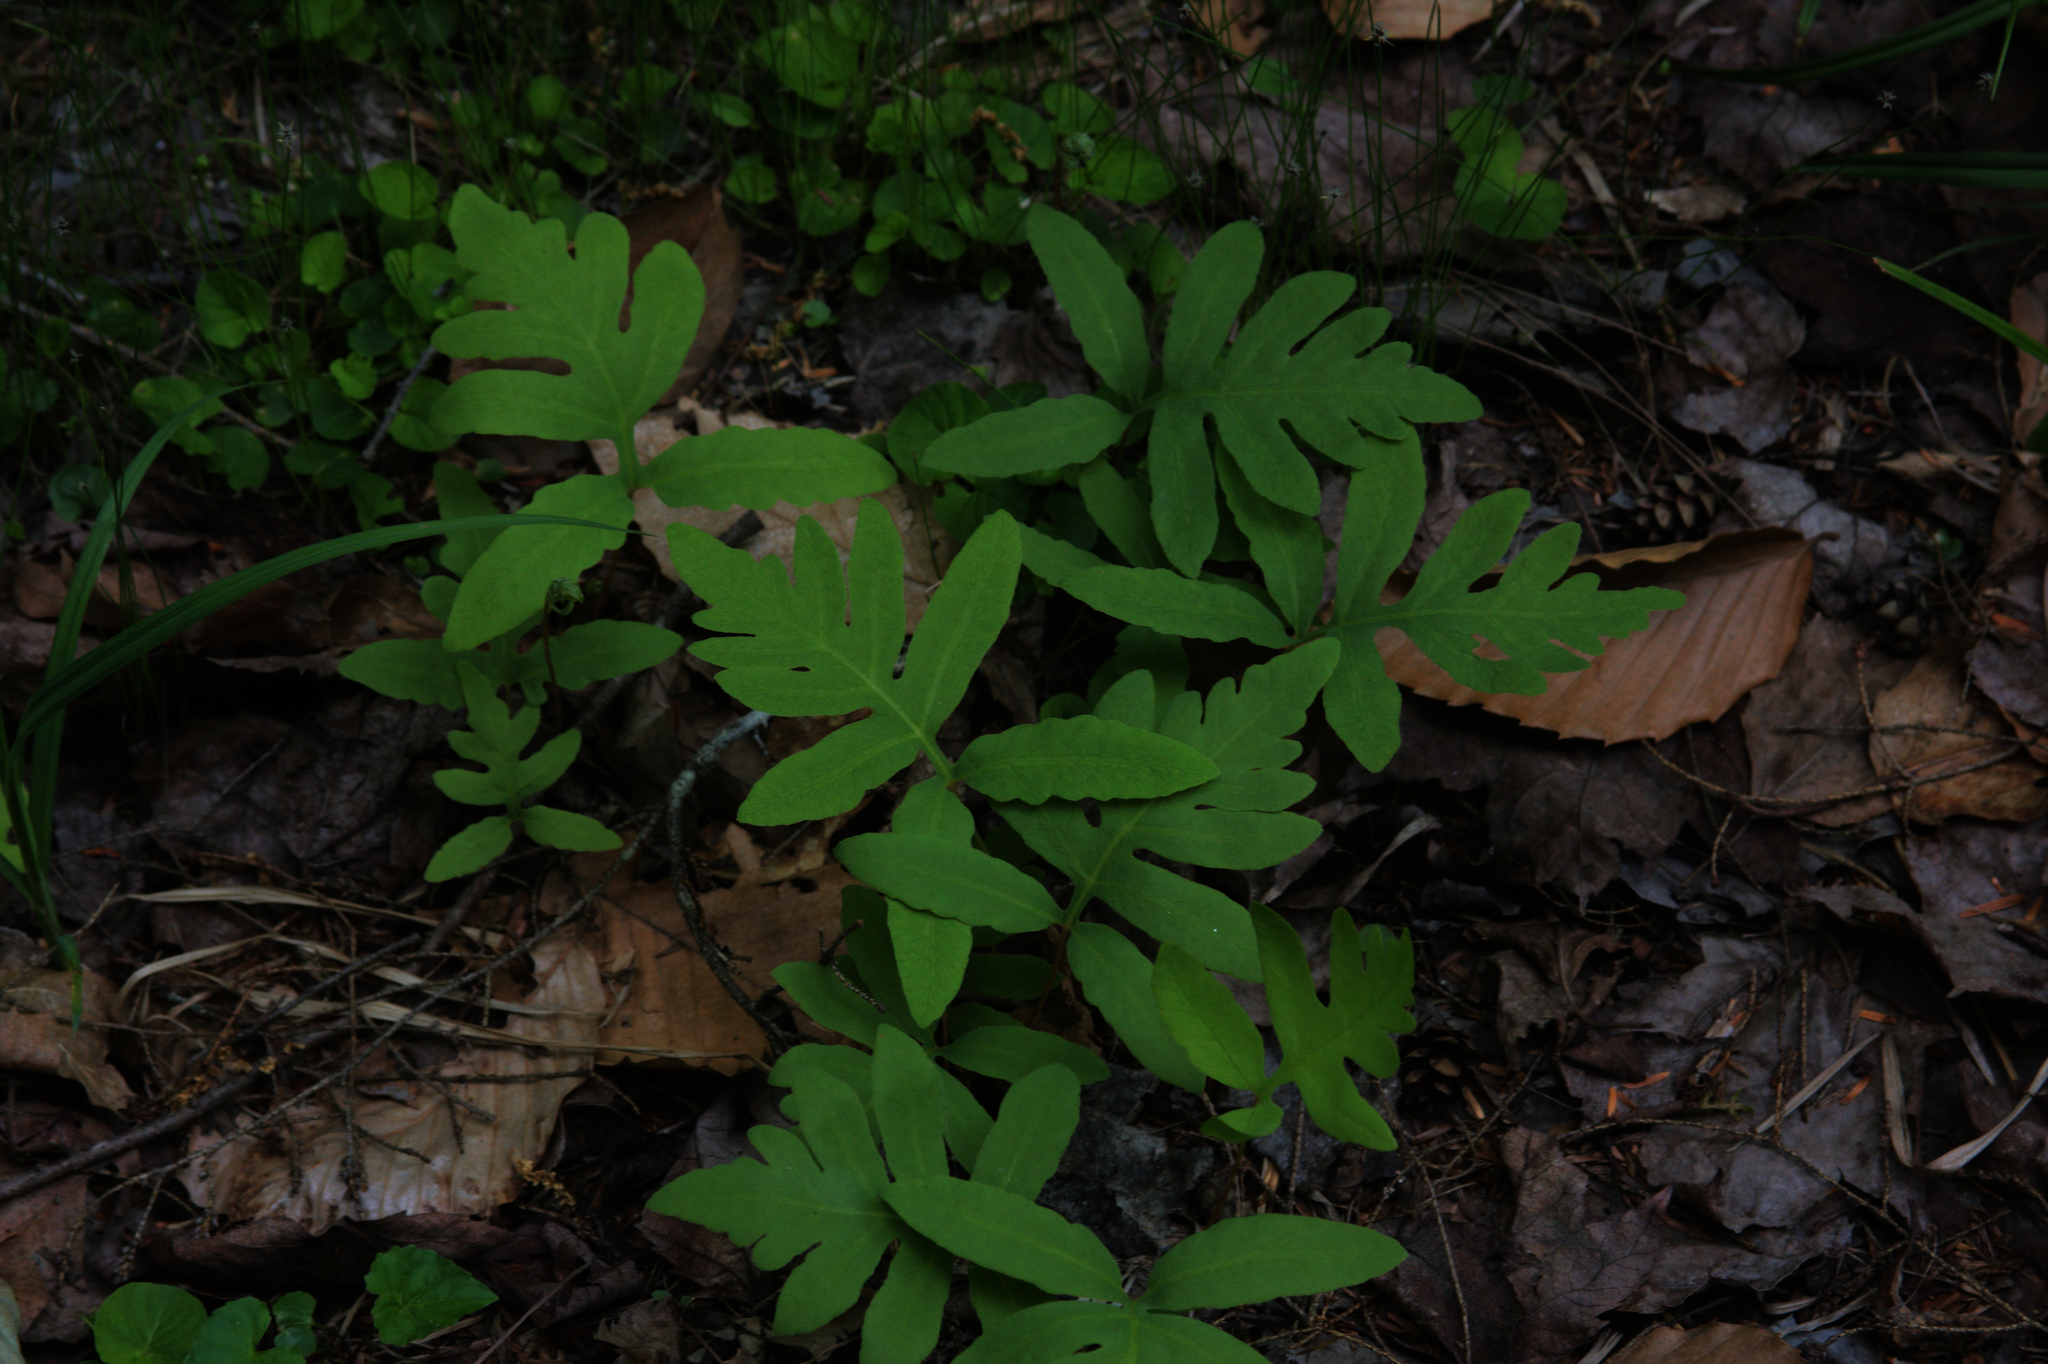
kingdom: Plantae
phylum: Tracheophyta
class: Polypodiopsida
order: Polypodiales
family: Onocleaceae
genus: Onoclea
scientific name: Onoclea sensibilis
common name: Sensitive fern
